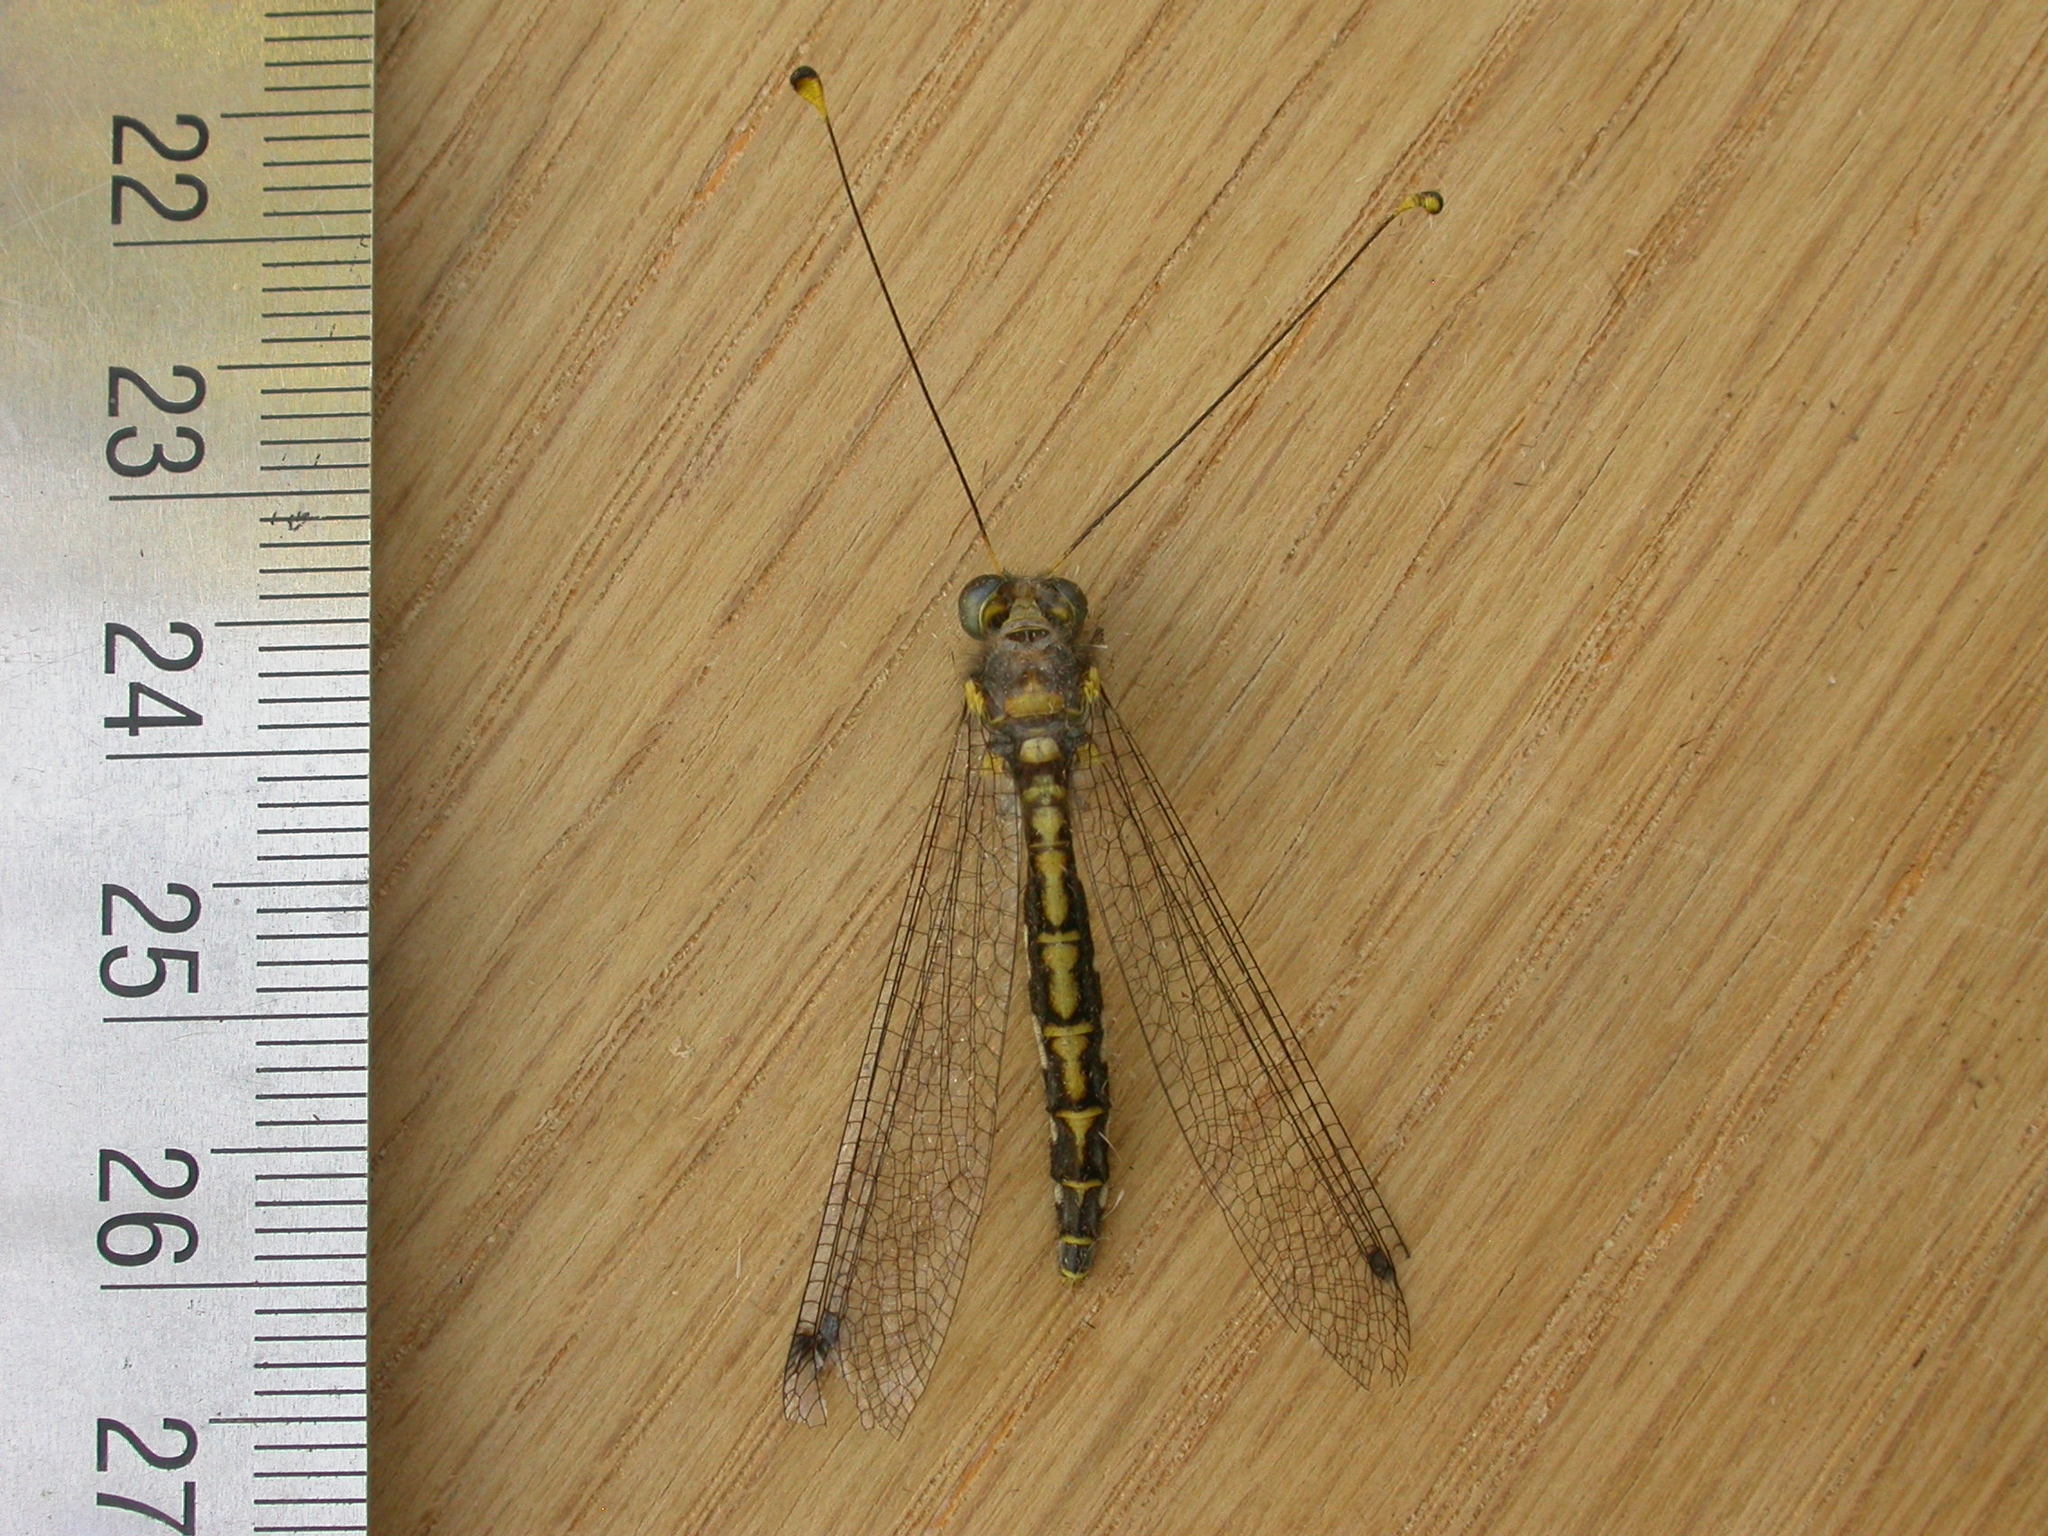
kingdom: Animalia
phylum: Arthropoda
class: Insecta
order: Neuroptera
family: Ascalaphidae
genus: Suhpalacsa
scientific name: Suhpalacsa subtrahens
